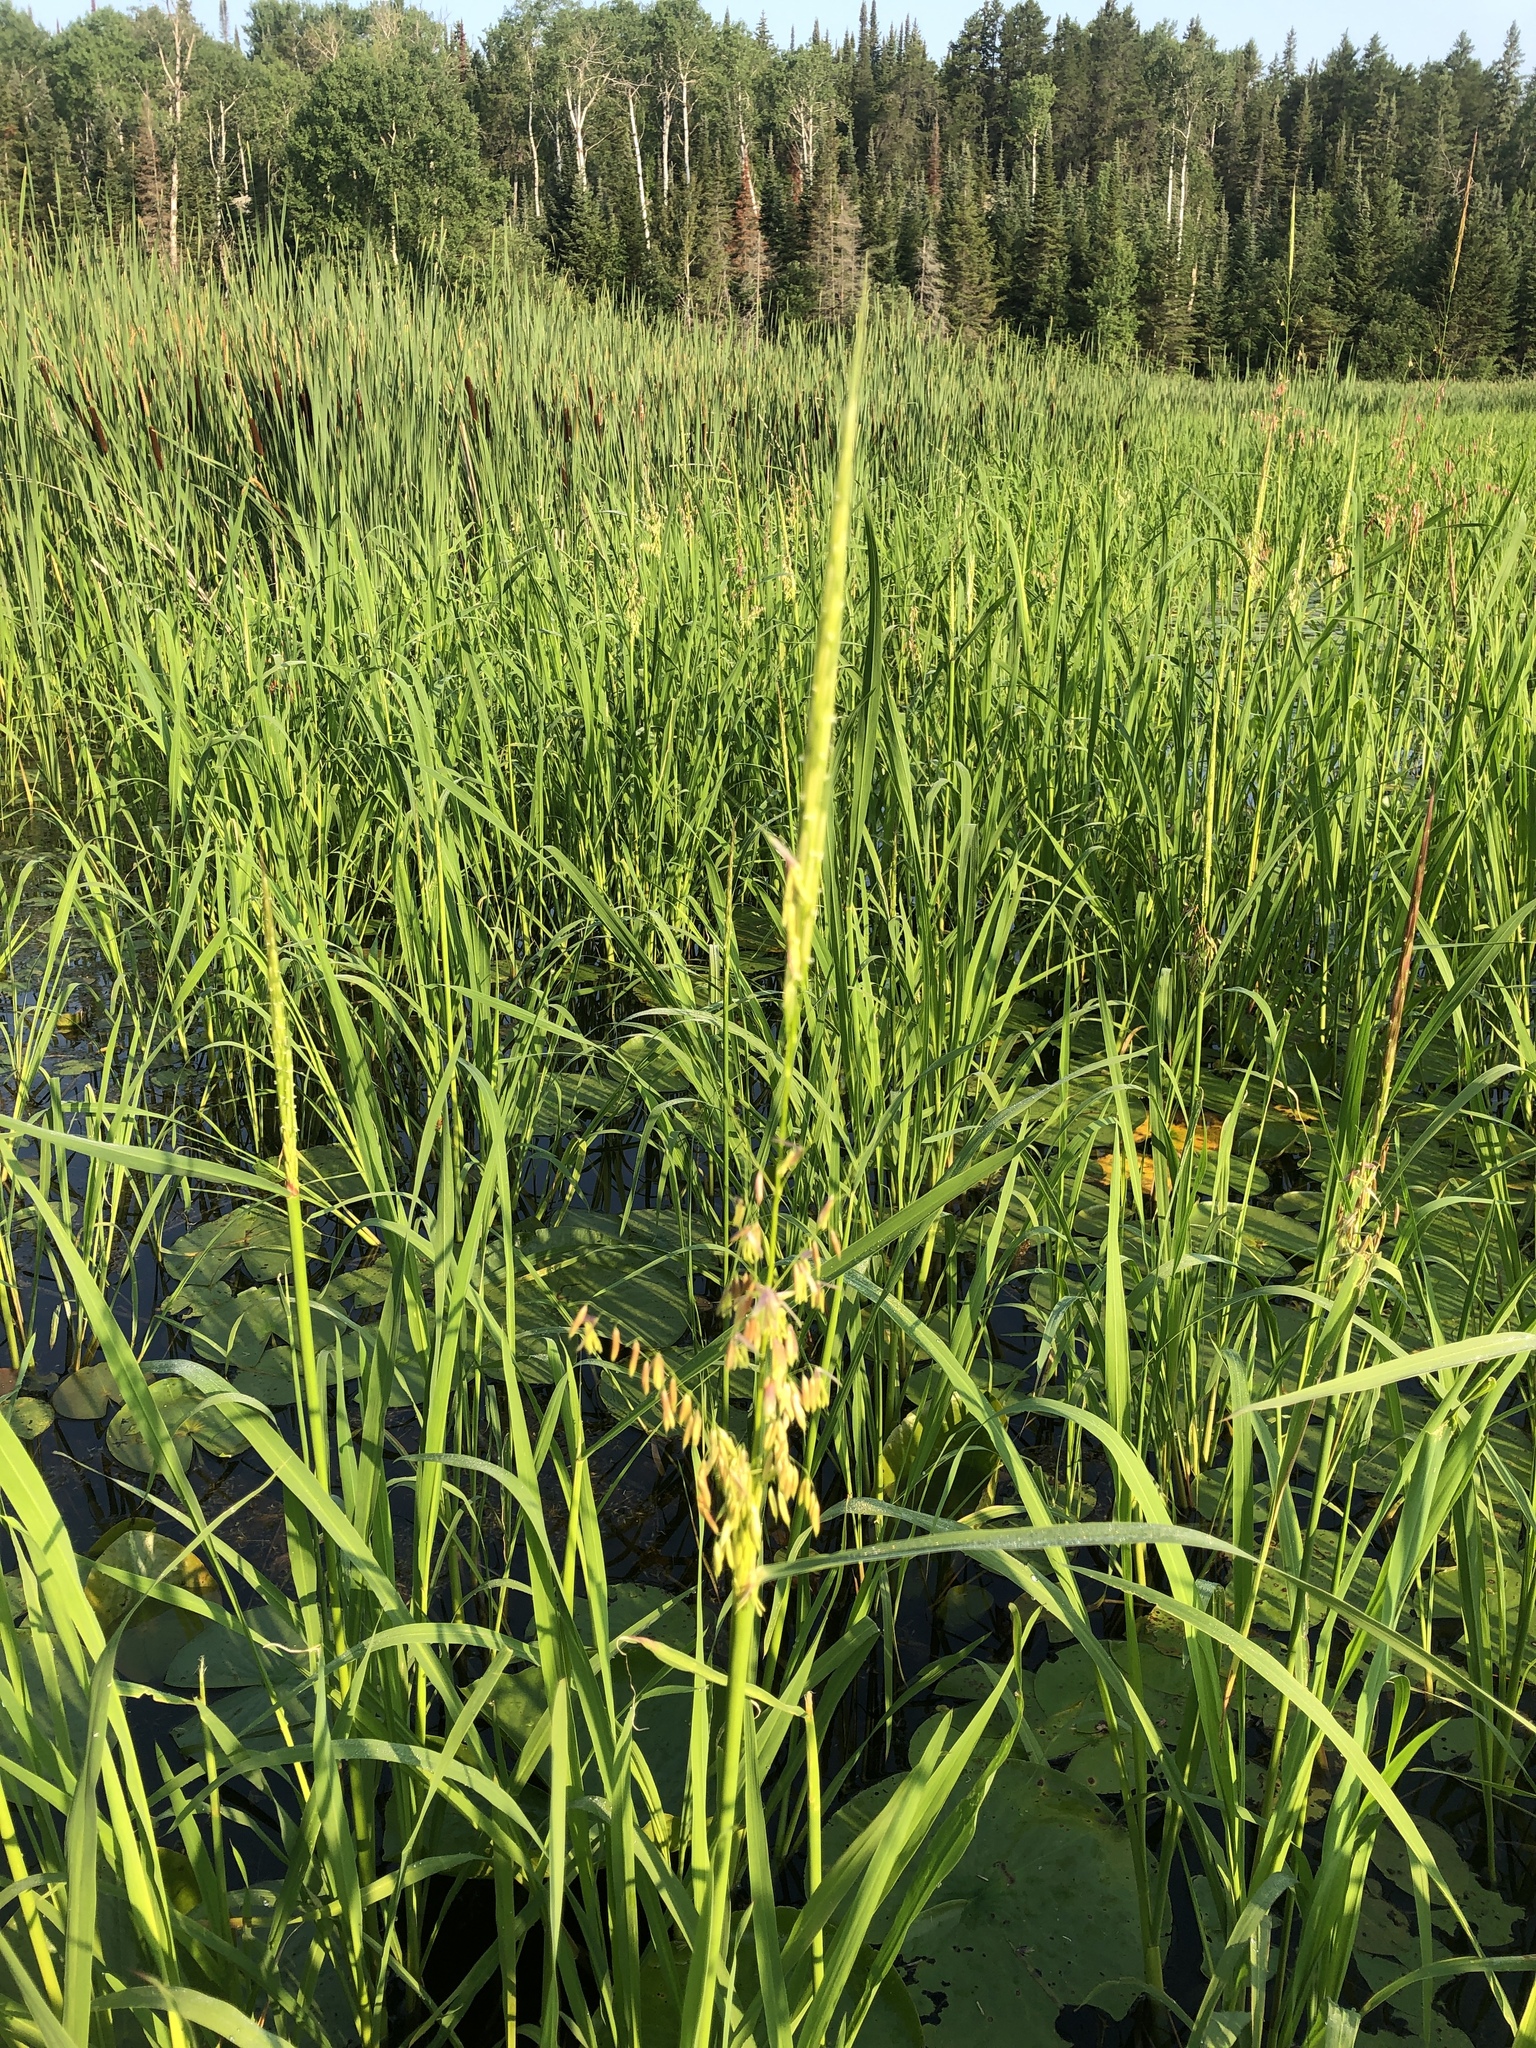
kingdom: Plantae
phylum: Tracheophyta
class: Liliopsida
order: Poales
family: Poaceae
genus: Zizania
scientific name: Zizania palustris
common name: Northern wild rice
